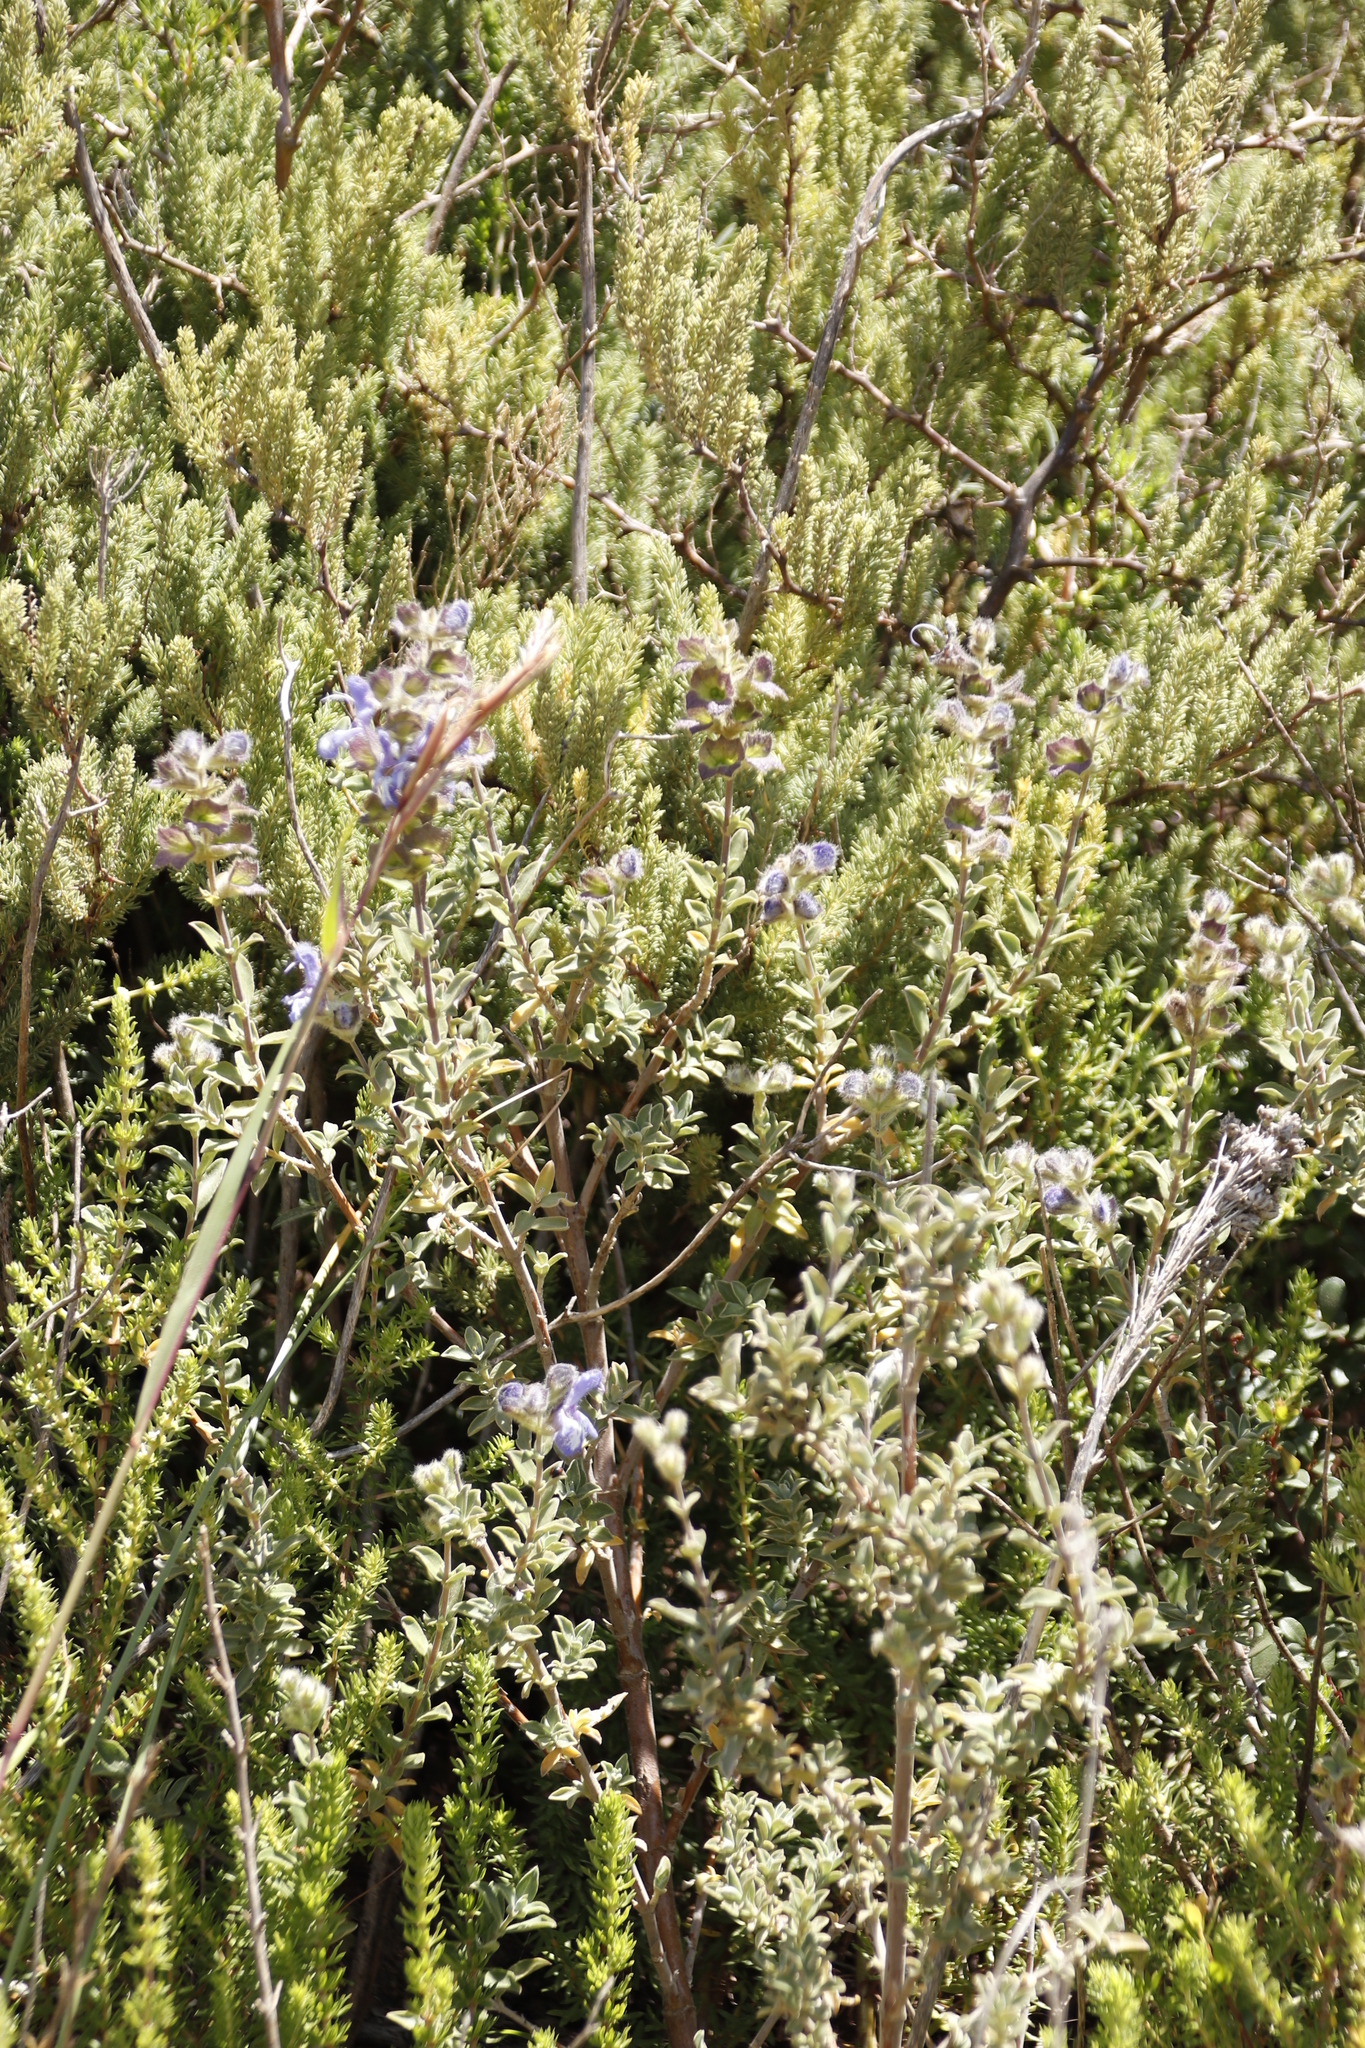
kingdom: Plantae
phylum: Tracheophyta
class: Magnoliopsida
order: Lamiales
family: Lamiaceae
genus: Salvia
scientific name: Salvia africana
